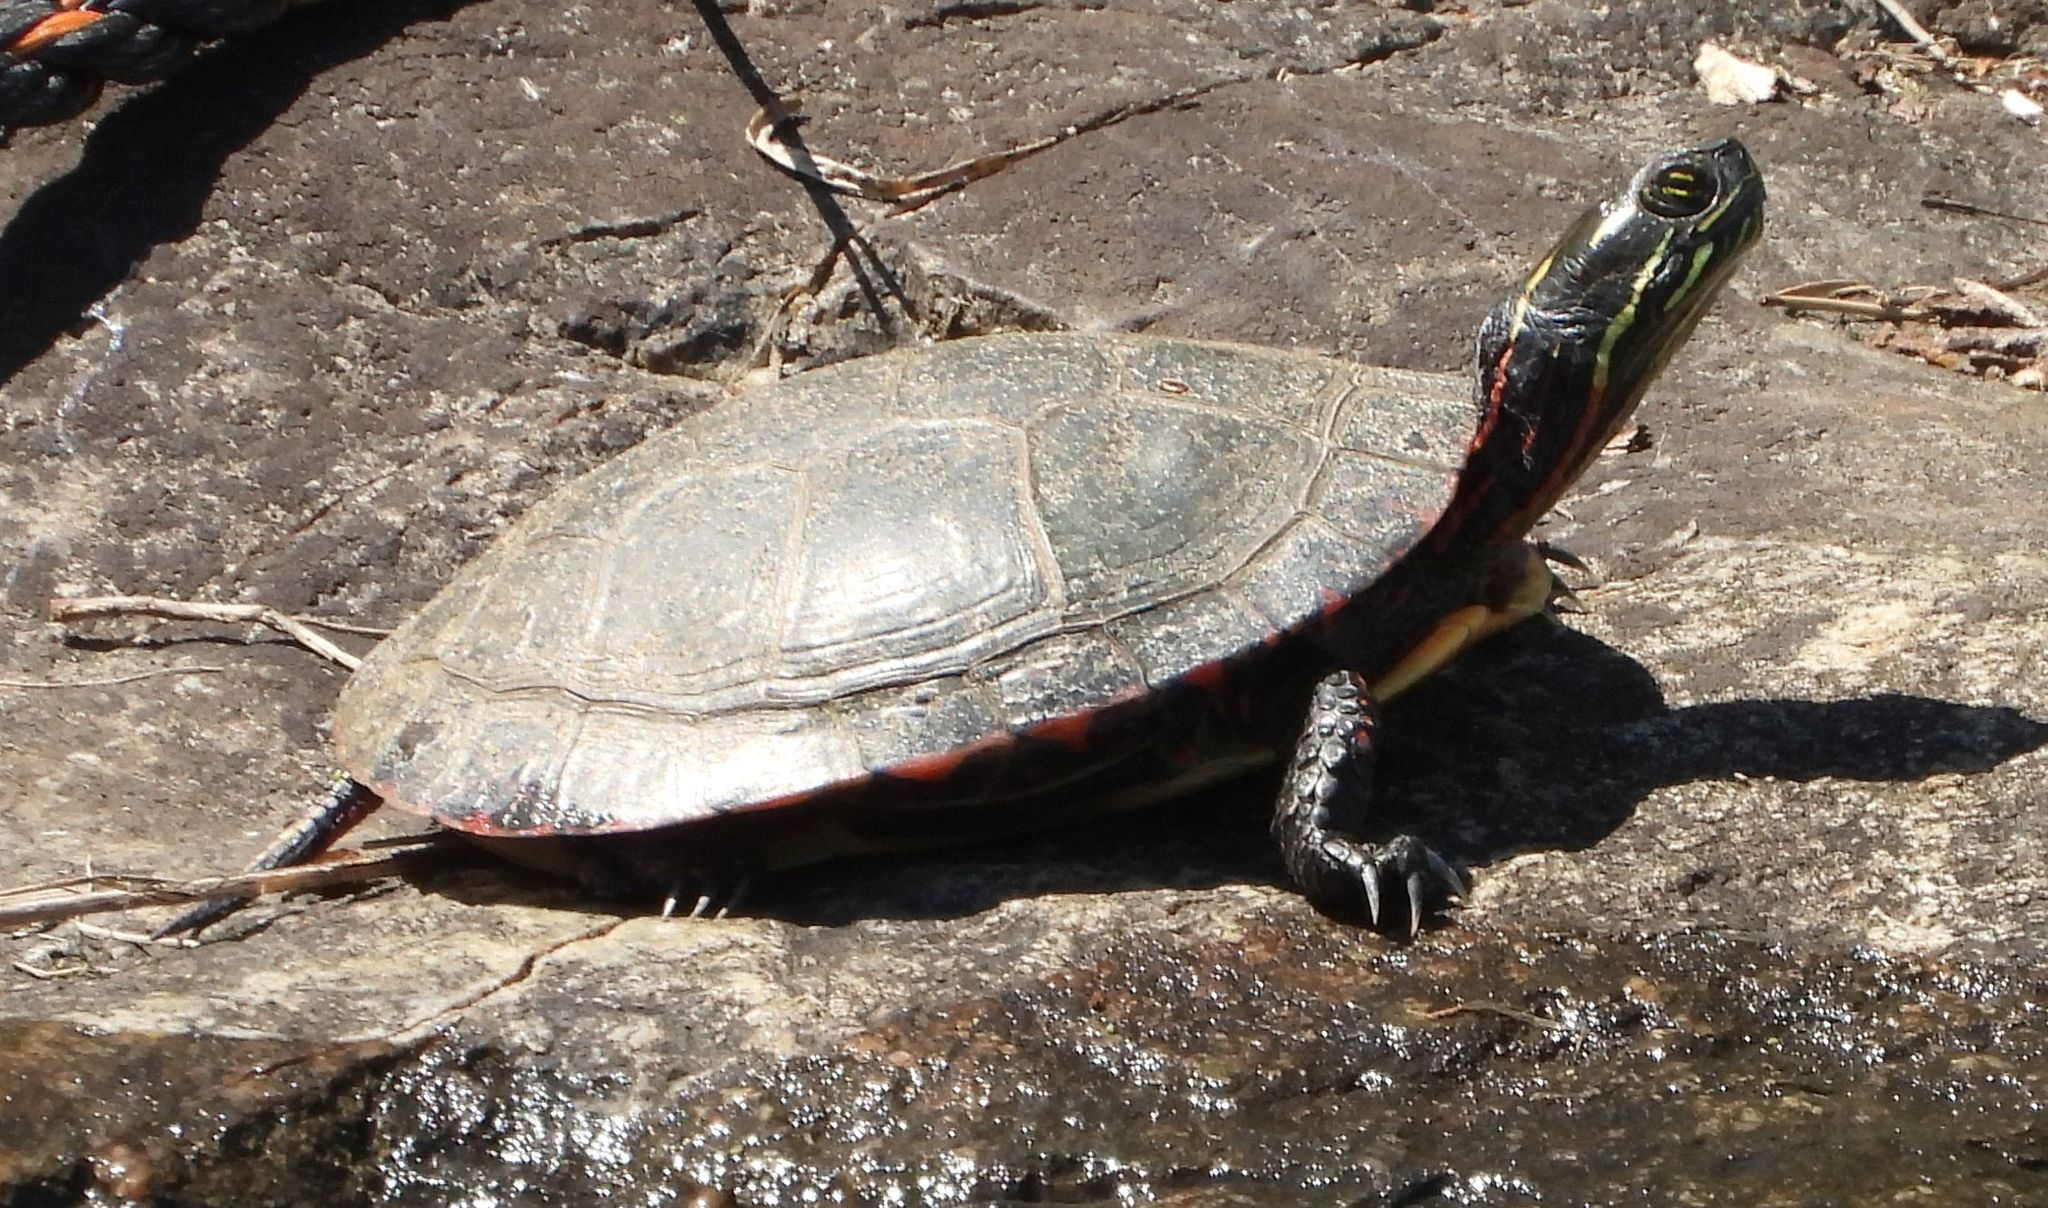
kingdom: Animalia
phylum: Chordata
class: Testudines
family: Emydidae
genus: Chrysemys
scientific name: Chrysemys picta
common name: Painted turtle
